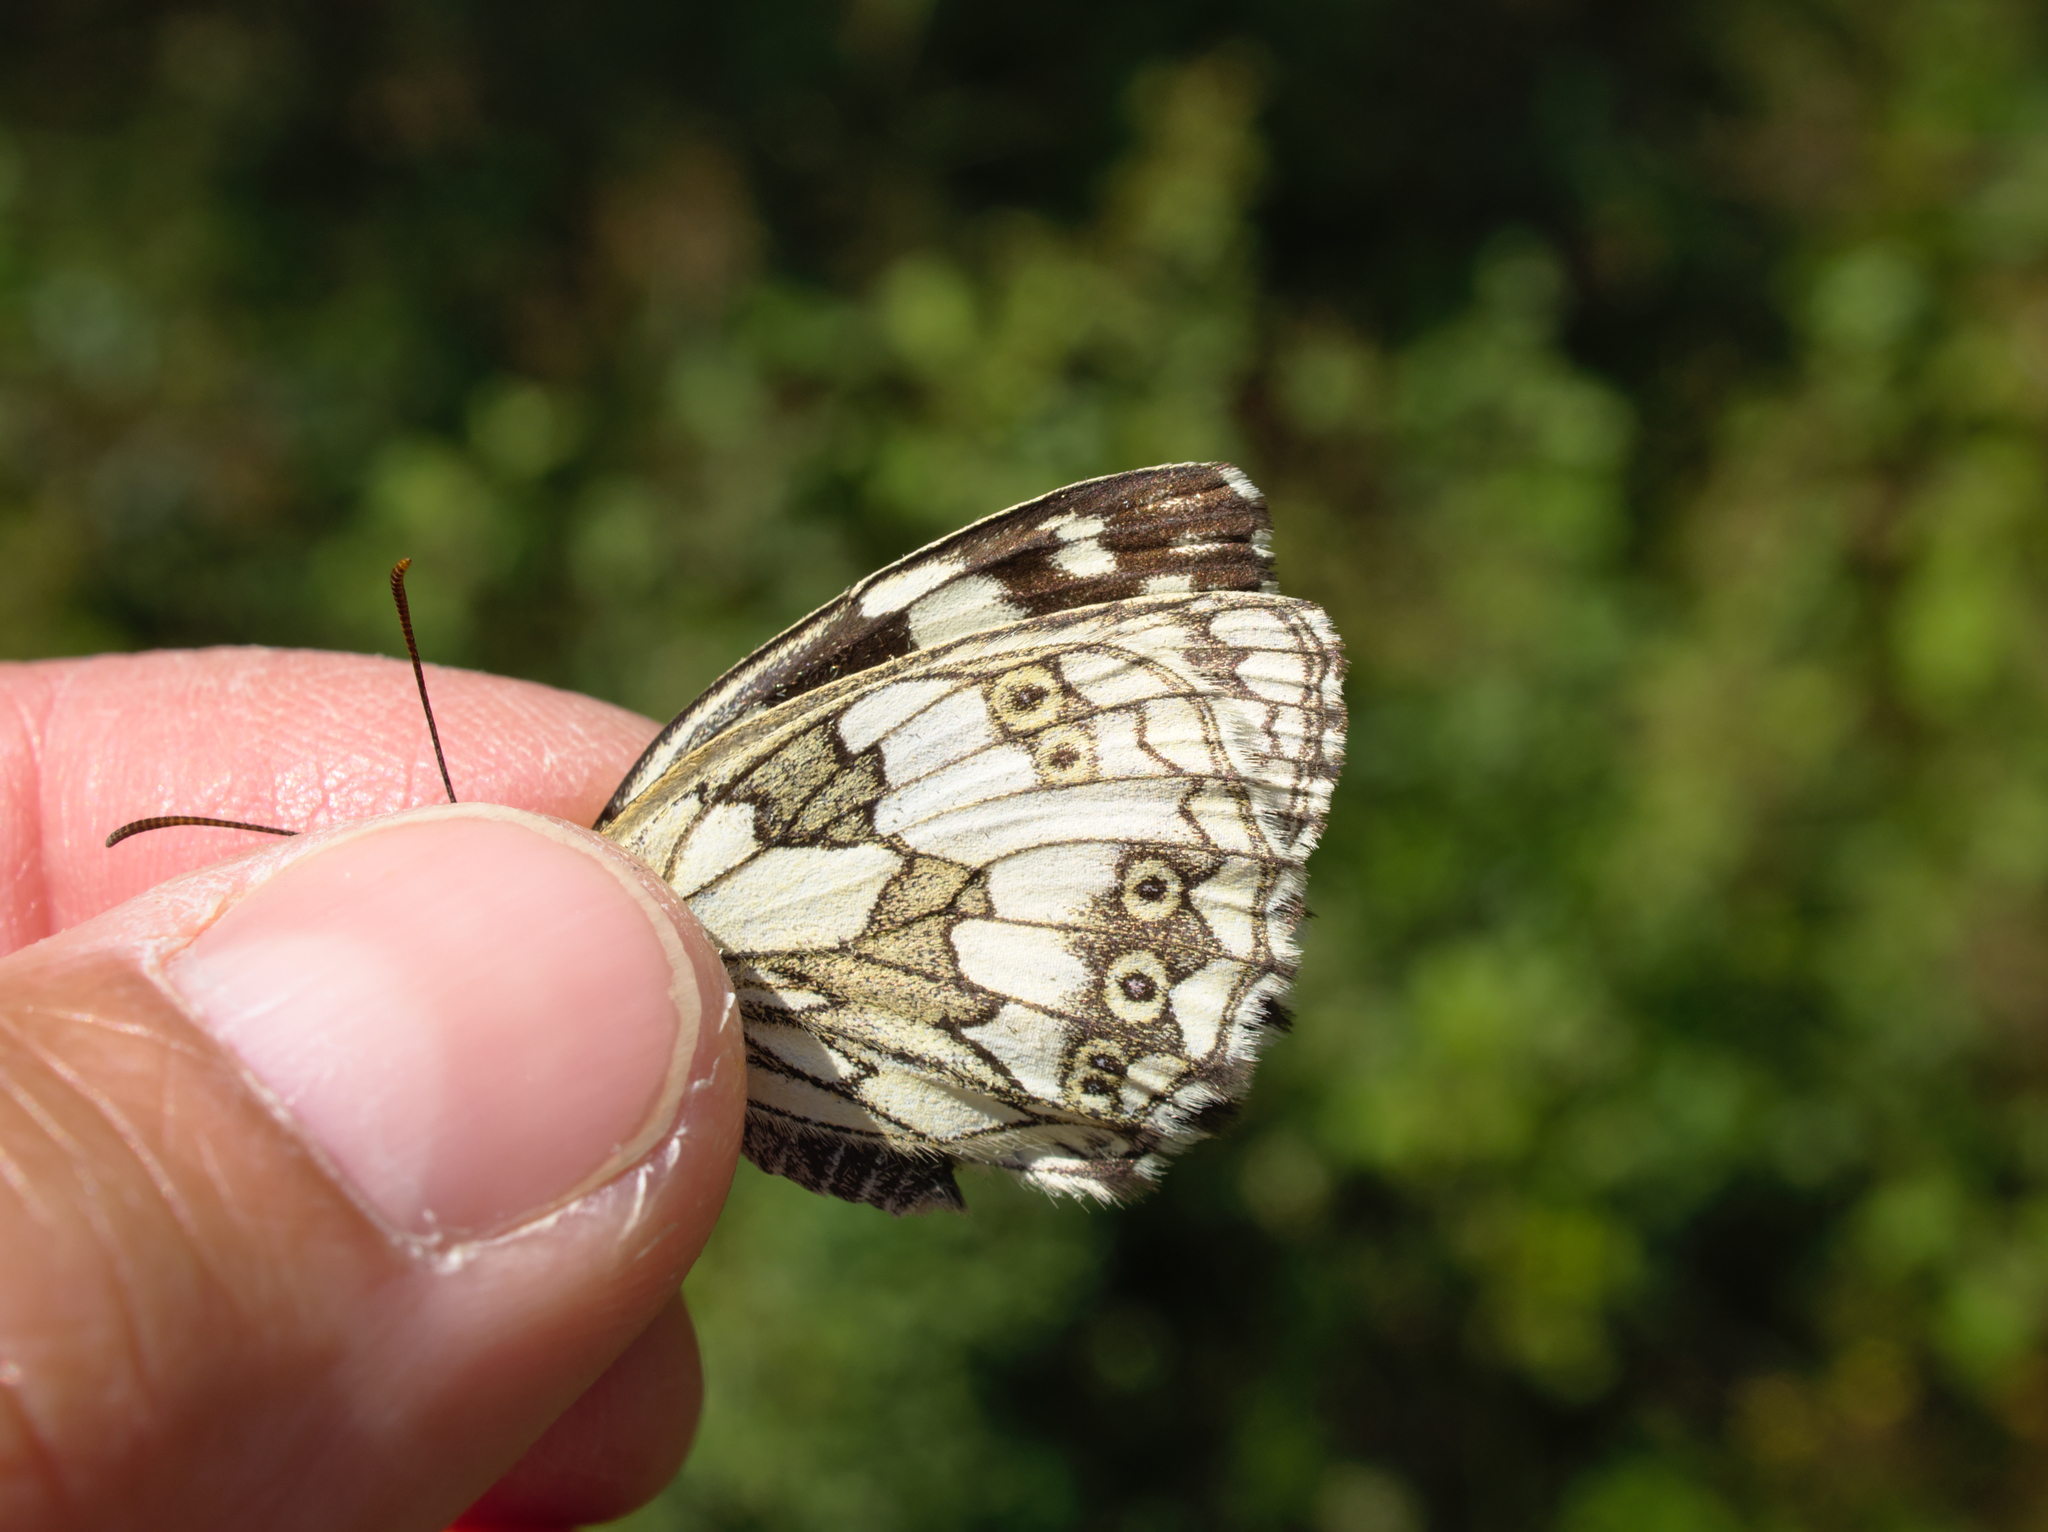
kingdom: Animalia
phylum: Arthropoda
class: Insecta
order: Lepidoptera
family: Nymphalidae
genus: Melanargia
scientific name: Melanargia galathea
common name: Marbled white
